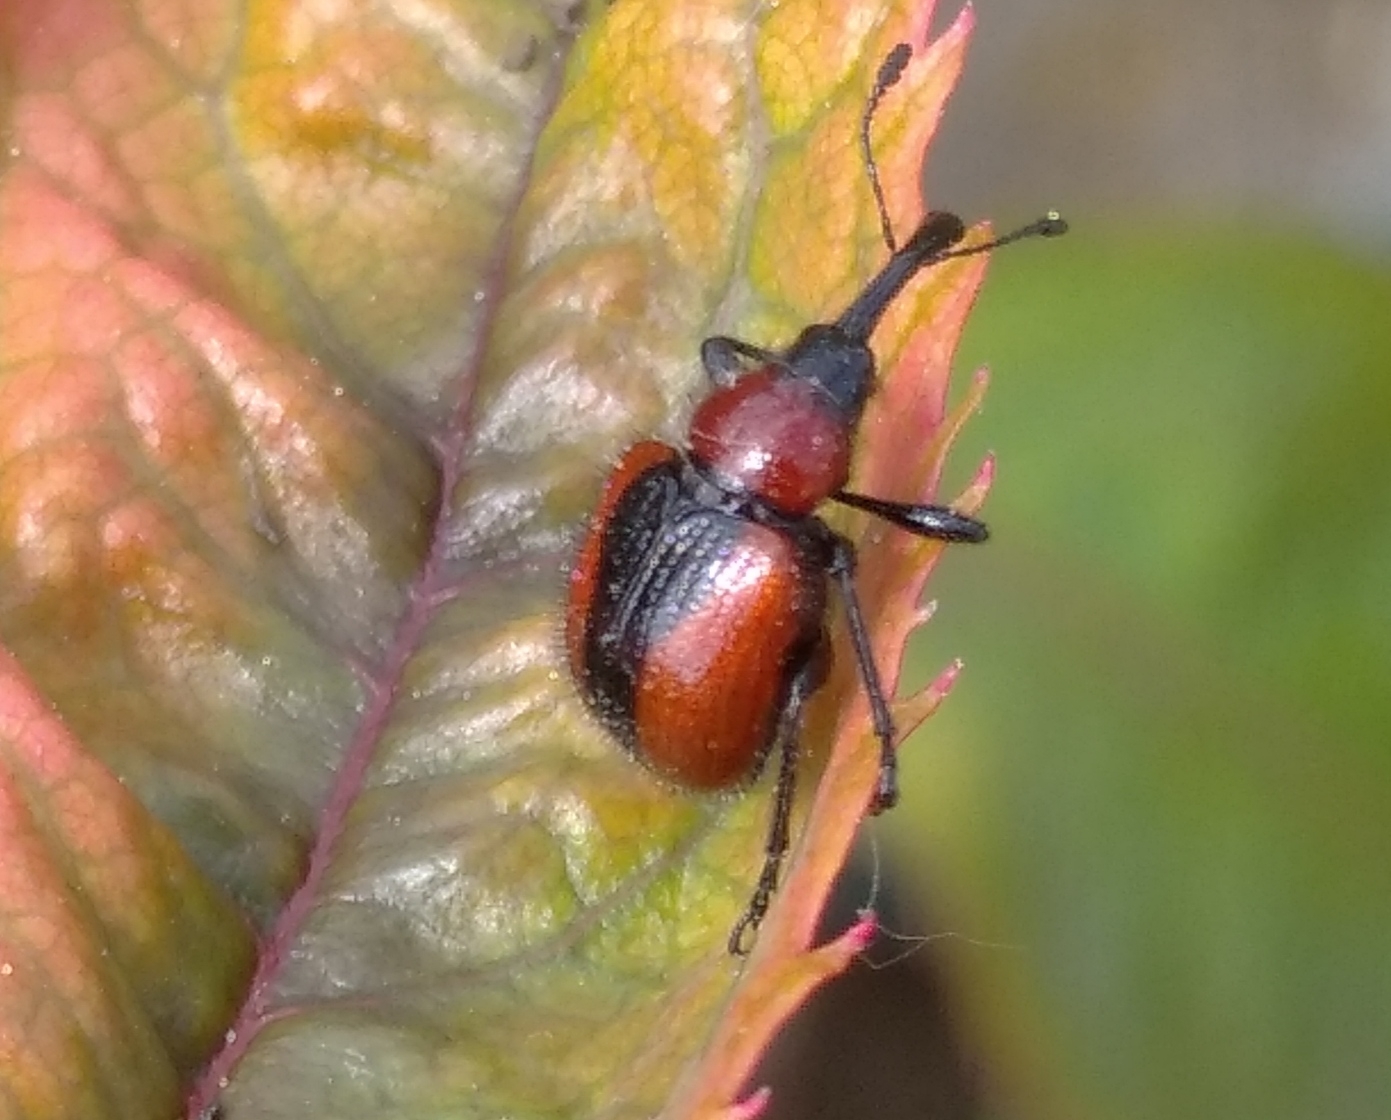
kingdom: Animalia
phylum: Arthropoda
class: Insecta
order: Coleoptera
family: Attelabidae
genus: Mecorhis
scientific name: Mecorhis ungarica
